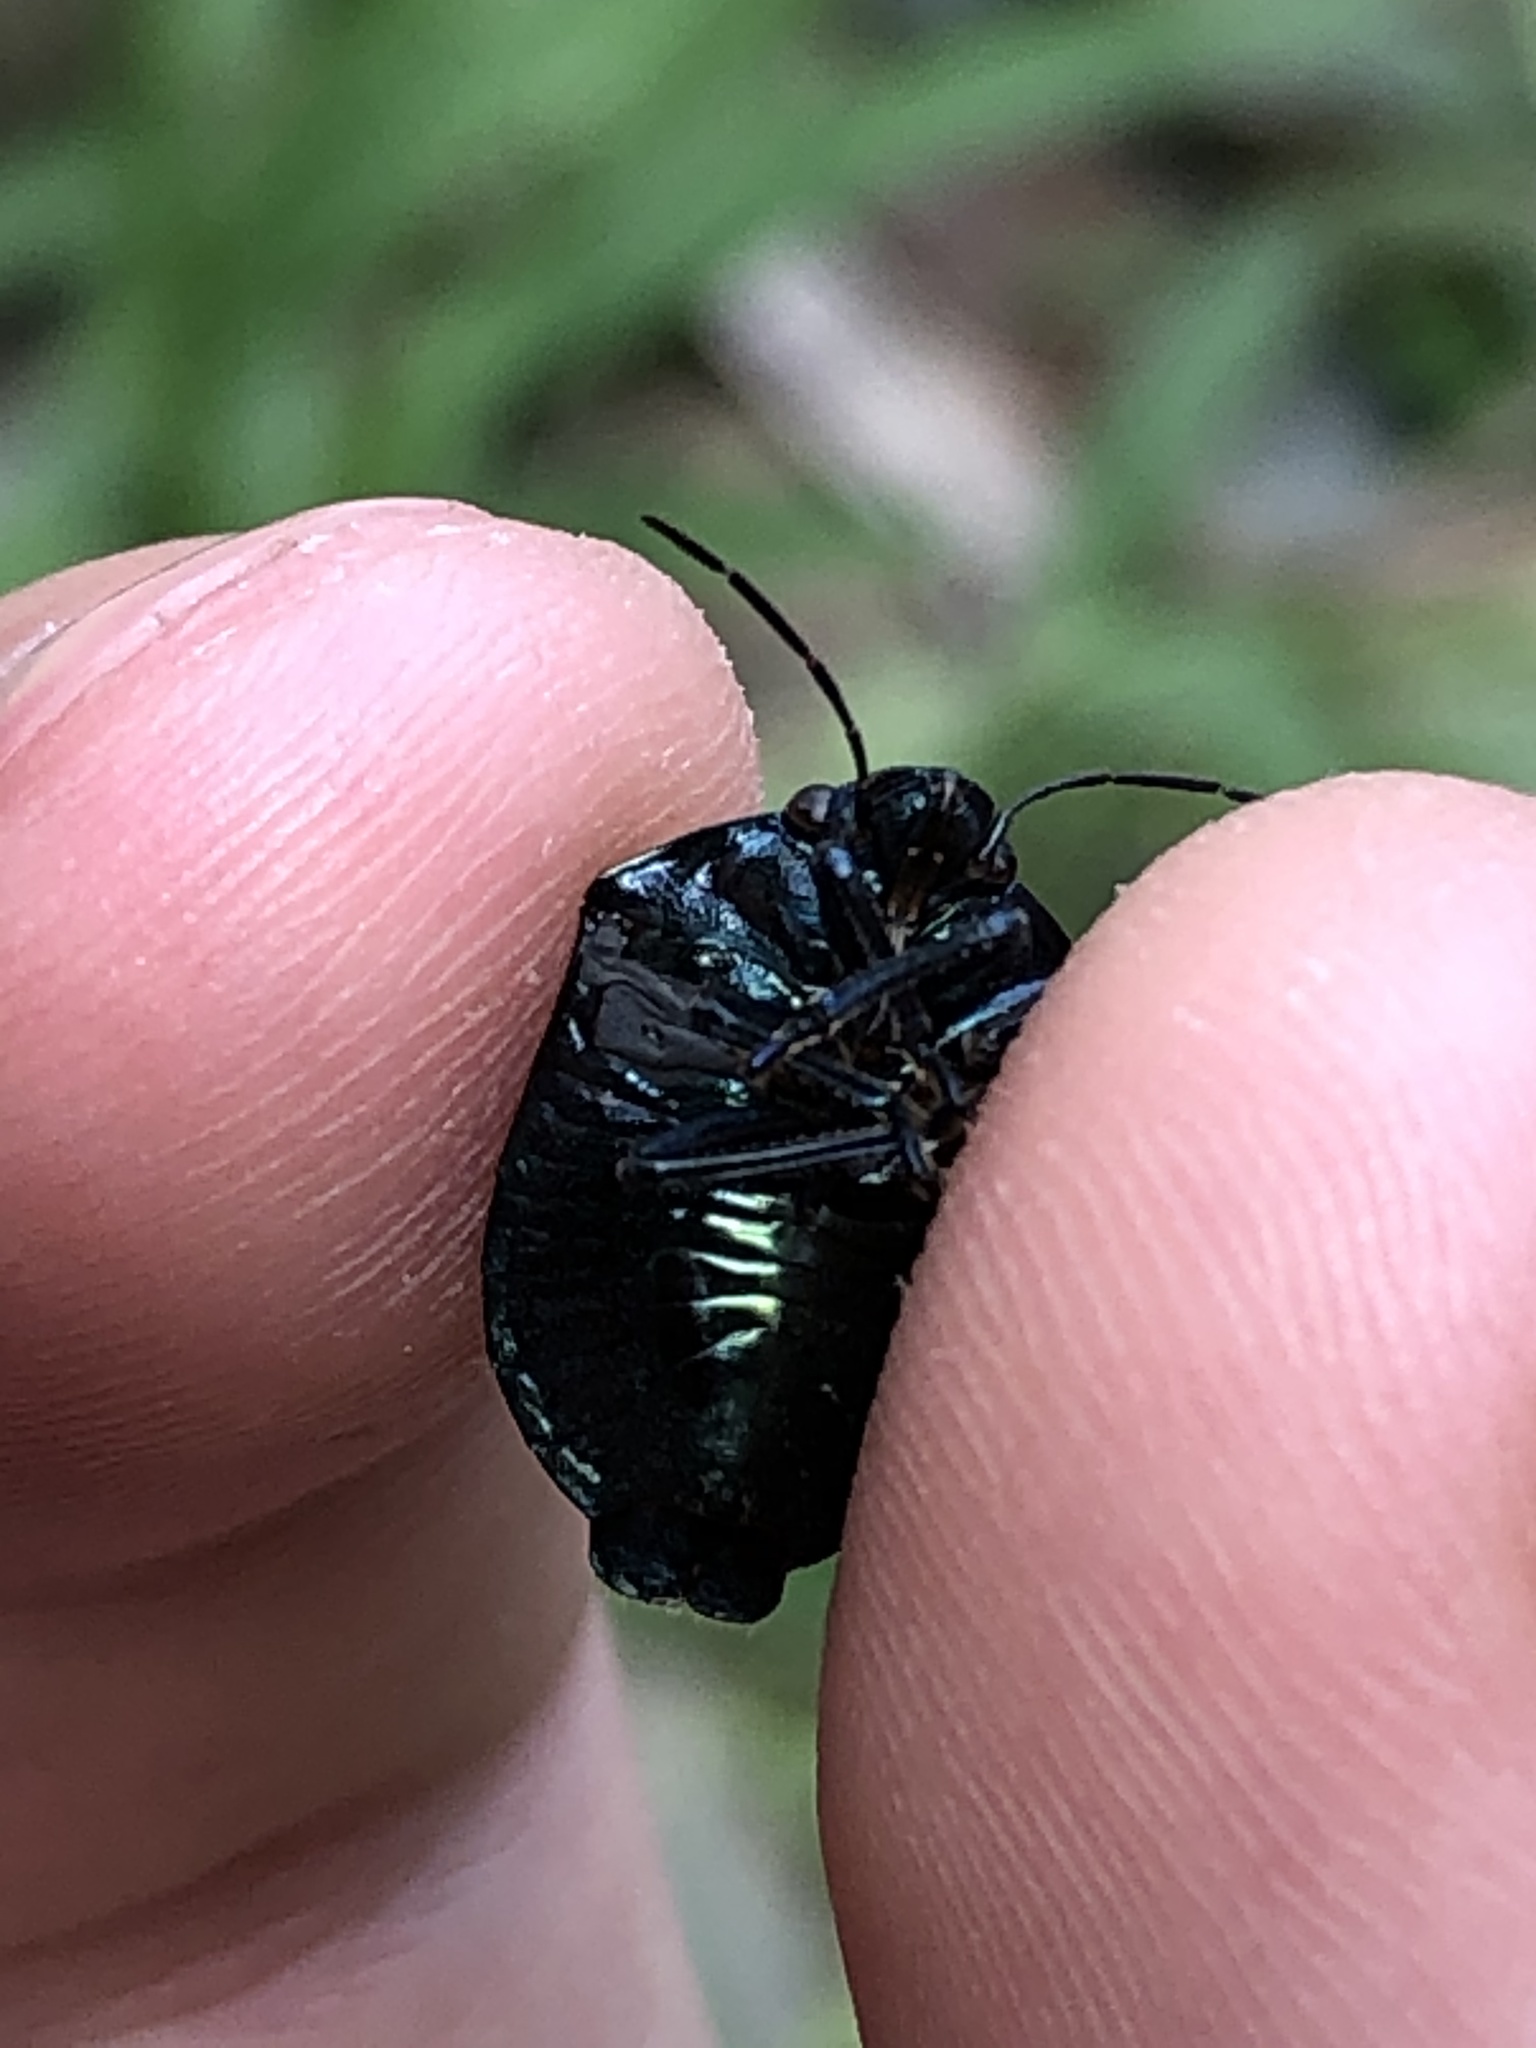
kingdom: Animalia
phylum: Arthropoda
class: Insecta
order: Hemiptera
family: Scutelleridae
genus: Pachycoris
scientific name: Pachycoris torridus
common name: Torrid jewel bug
